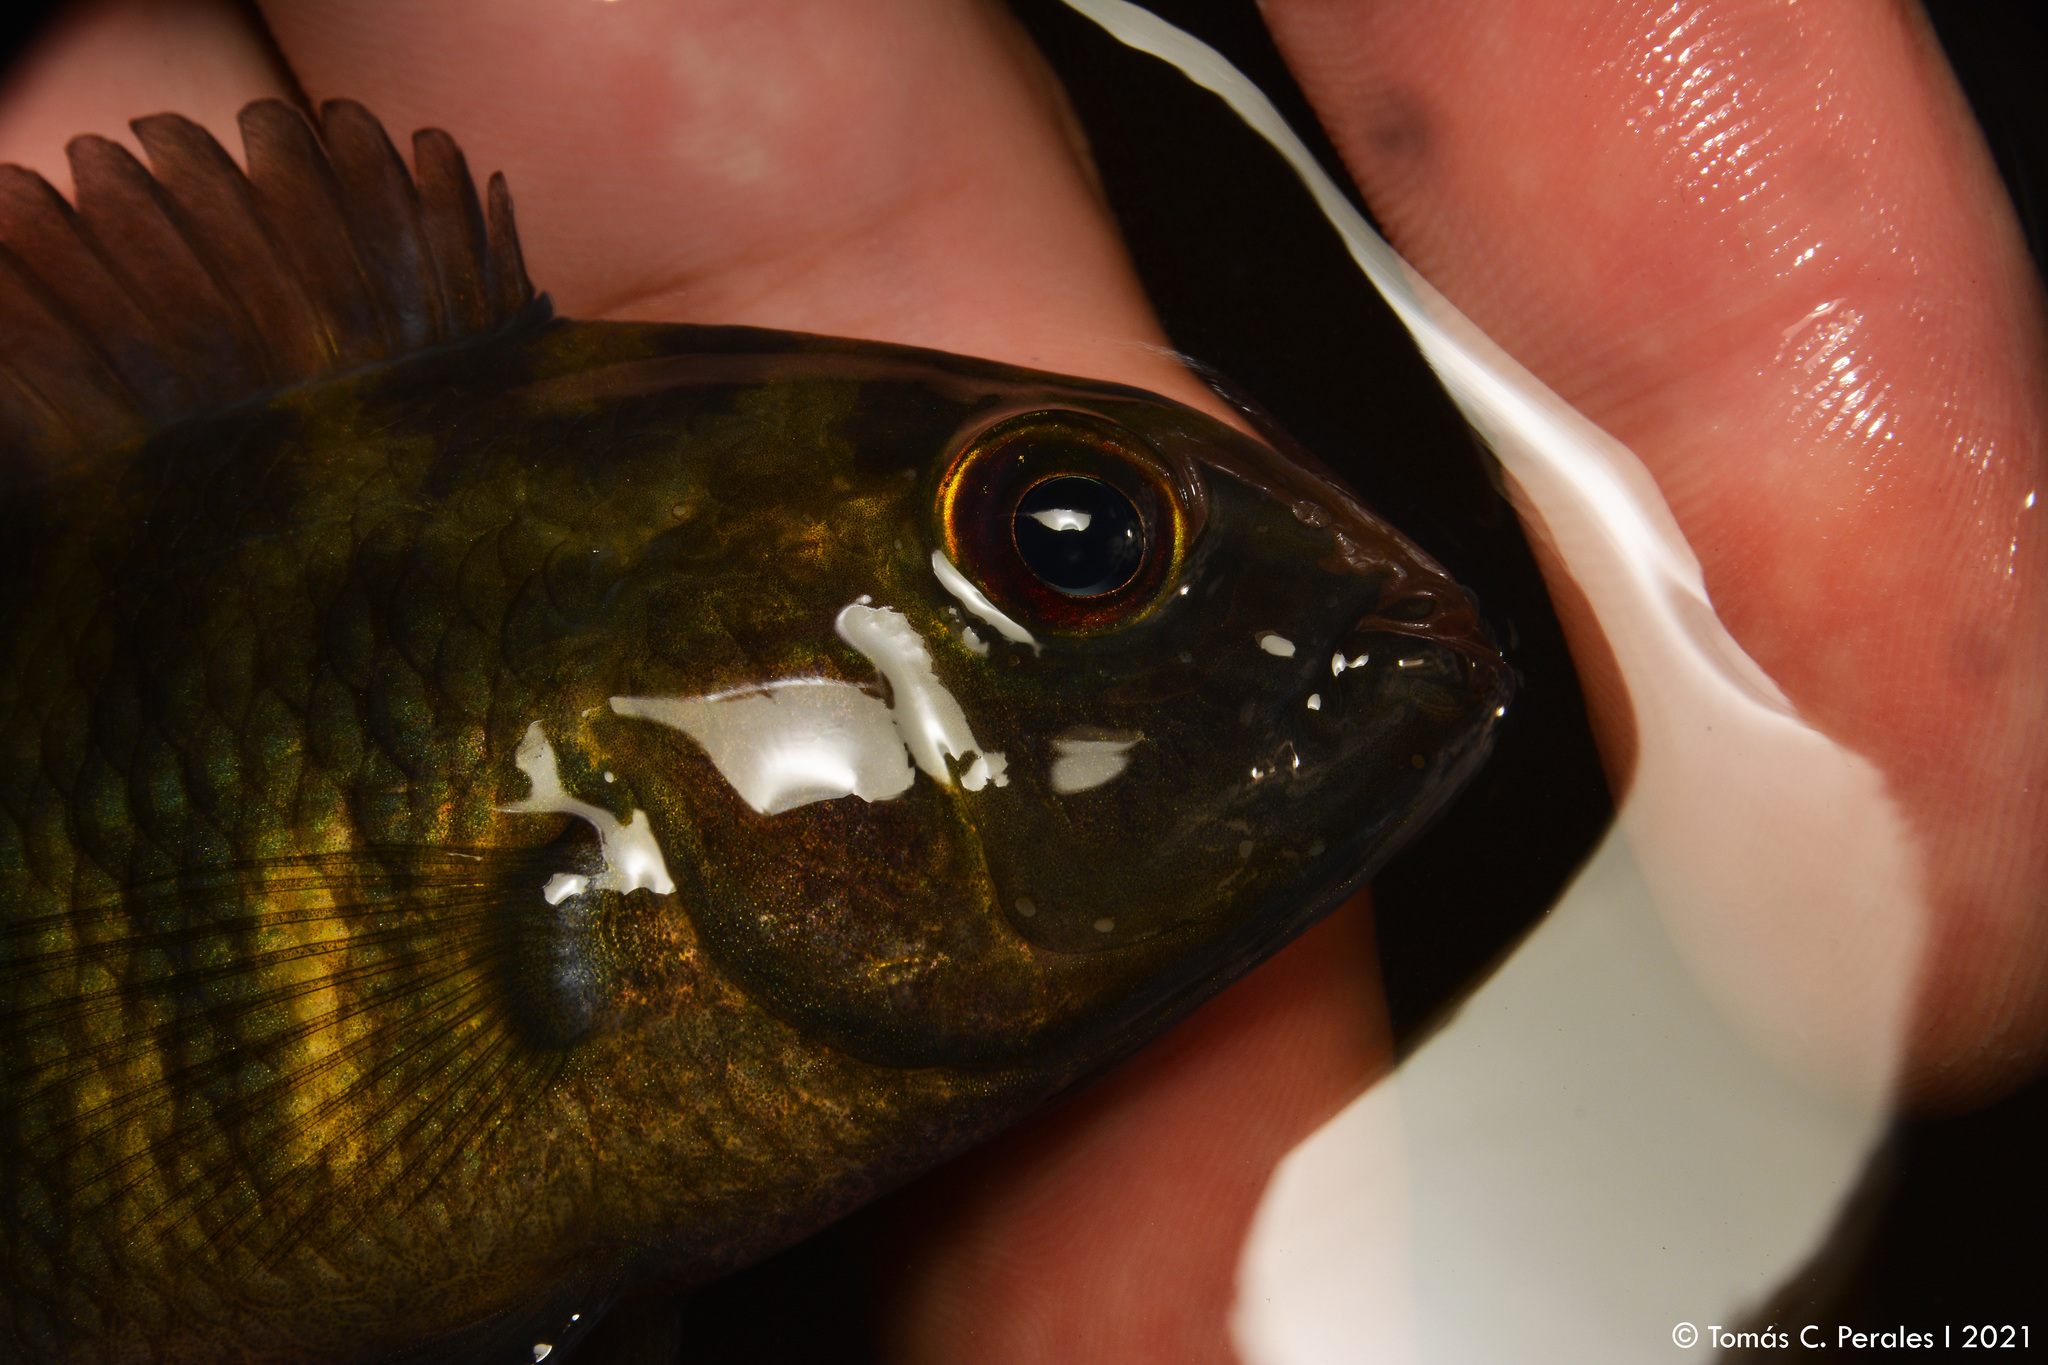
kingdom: Animalia
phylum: Chordata
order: Perciformes
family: Cichlidae
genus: Australoheros
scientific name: Australoheros facetus
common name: Chameleon cichlid
